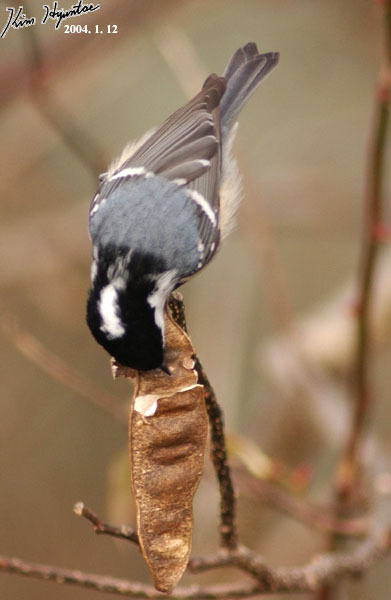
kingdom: Animalia
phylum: Chordata
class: Aves
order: Passeriformes
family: Paridae
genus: Periparus
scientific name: Periparus ater
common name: Coal tit
